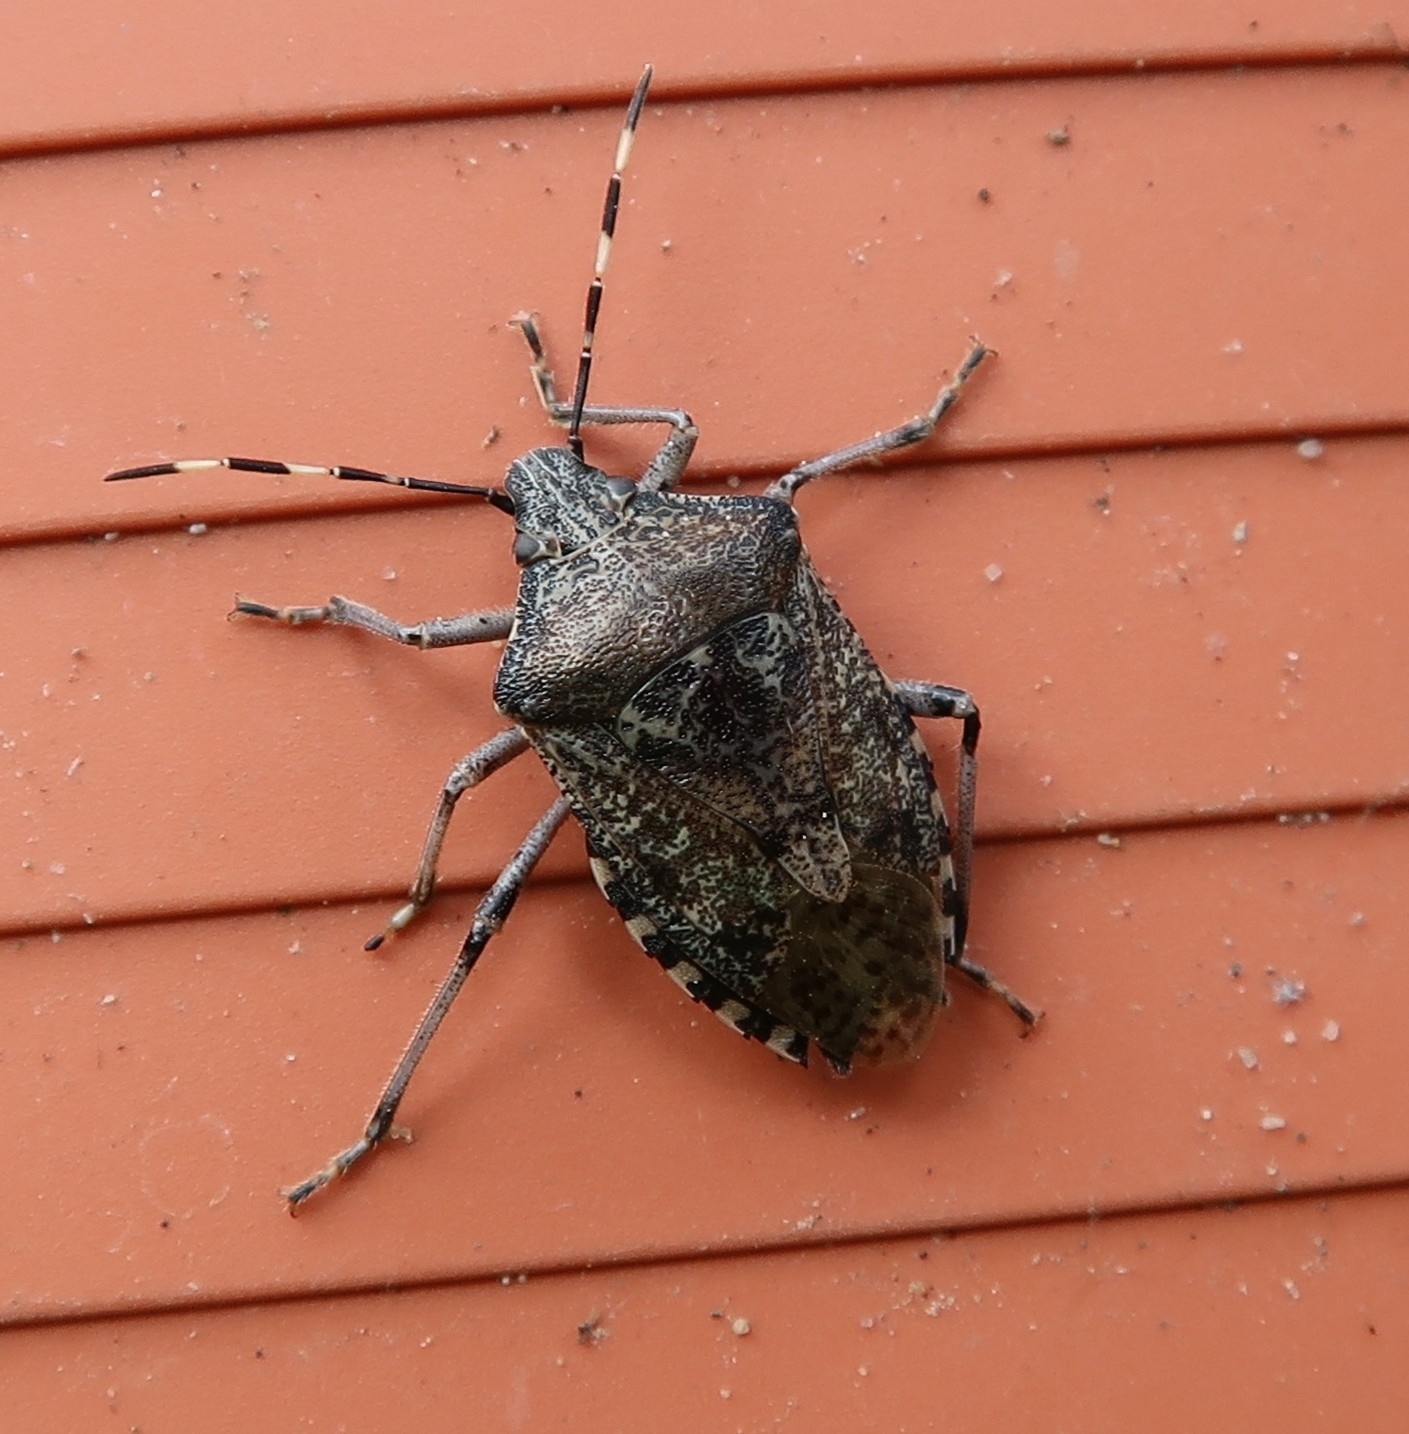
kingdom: Animalia
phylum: Arthropoda
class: Insecta
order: Hemiptera
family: Pentatomidae
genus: Rhaphigaster
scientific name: Rhaphigaster nebulosa
